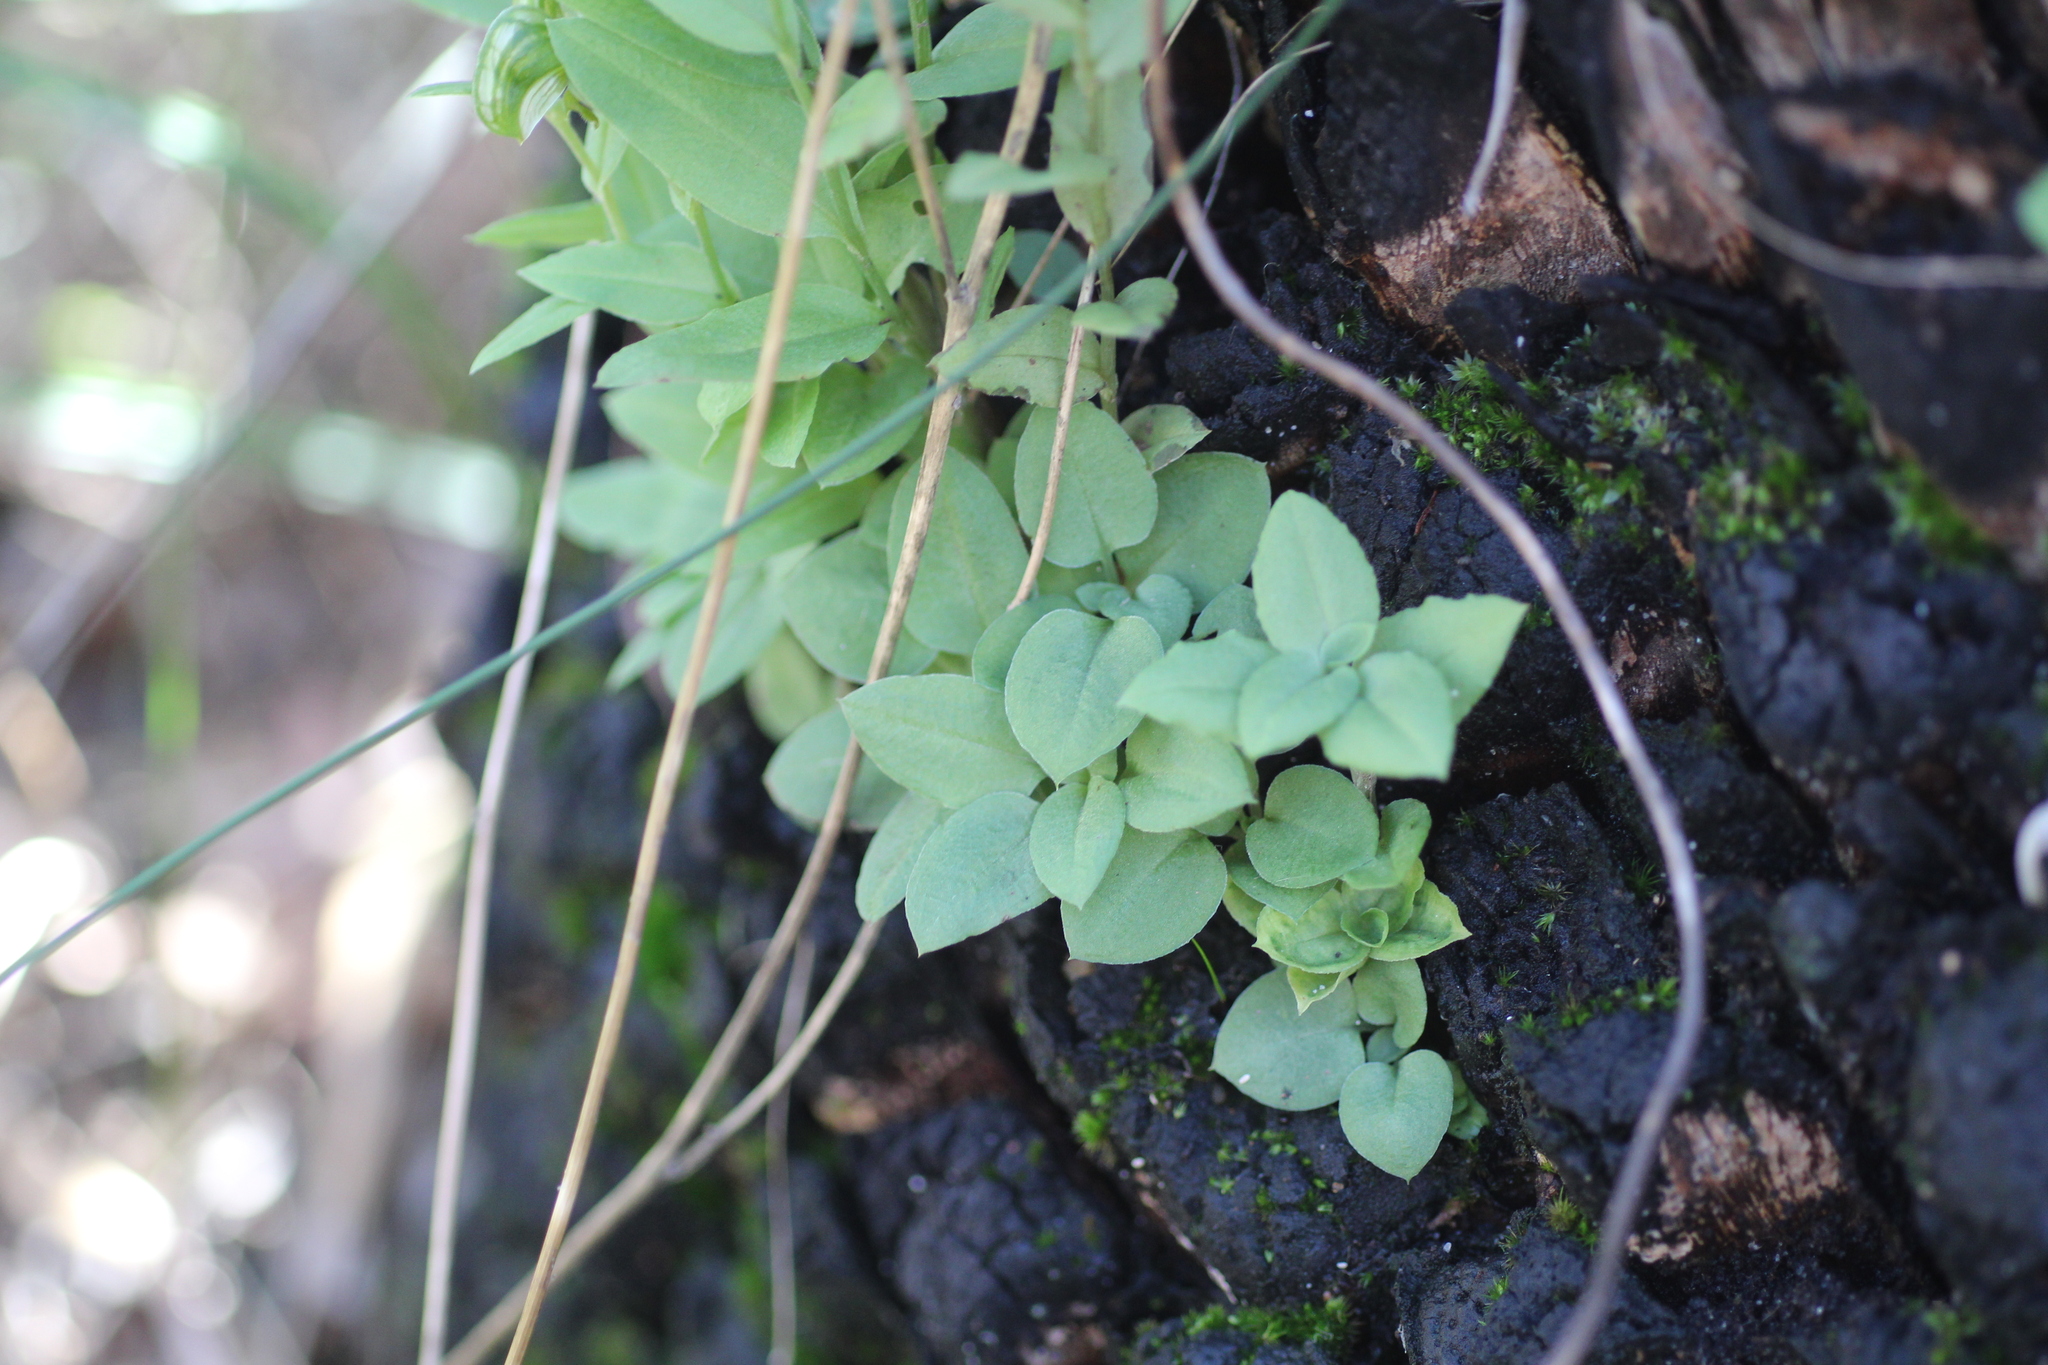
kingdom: Plantae
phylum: Tracheophyta
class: Liliopsida
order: Asparagales
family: Orchidaceae
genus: Pterostylis
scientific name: Pterostylis orbiculata
